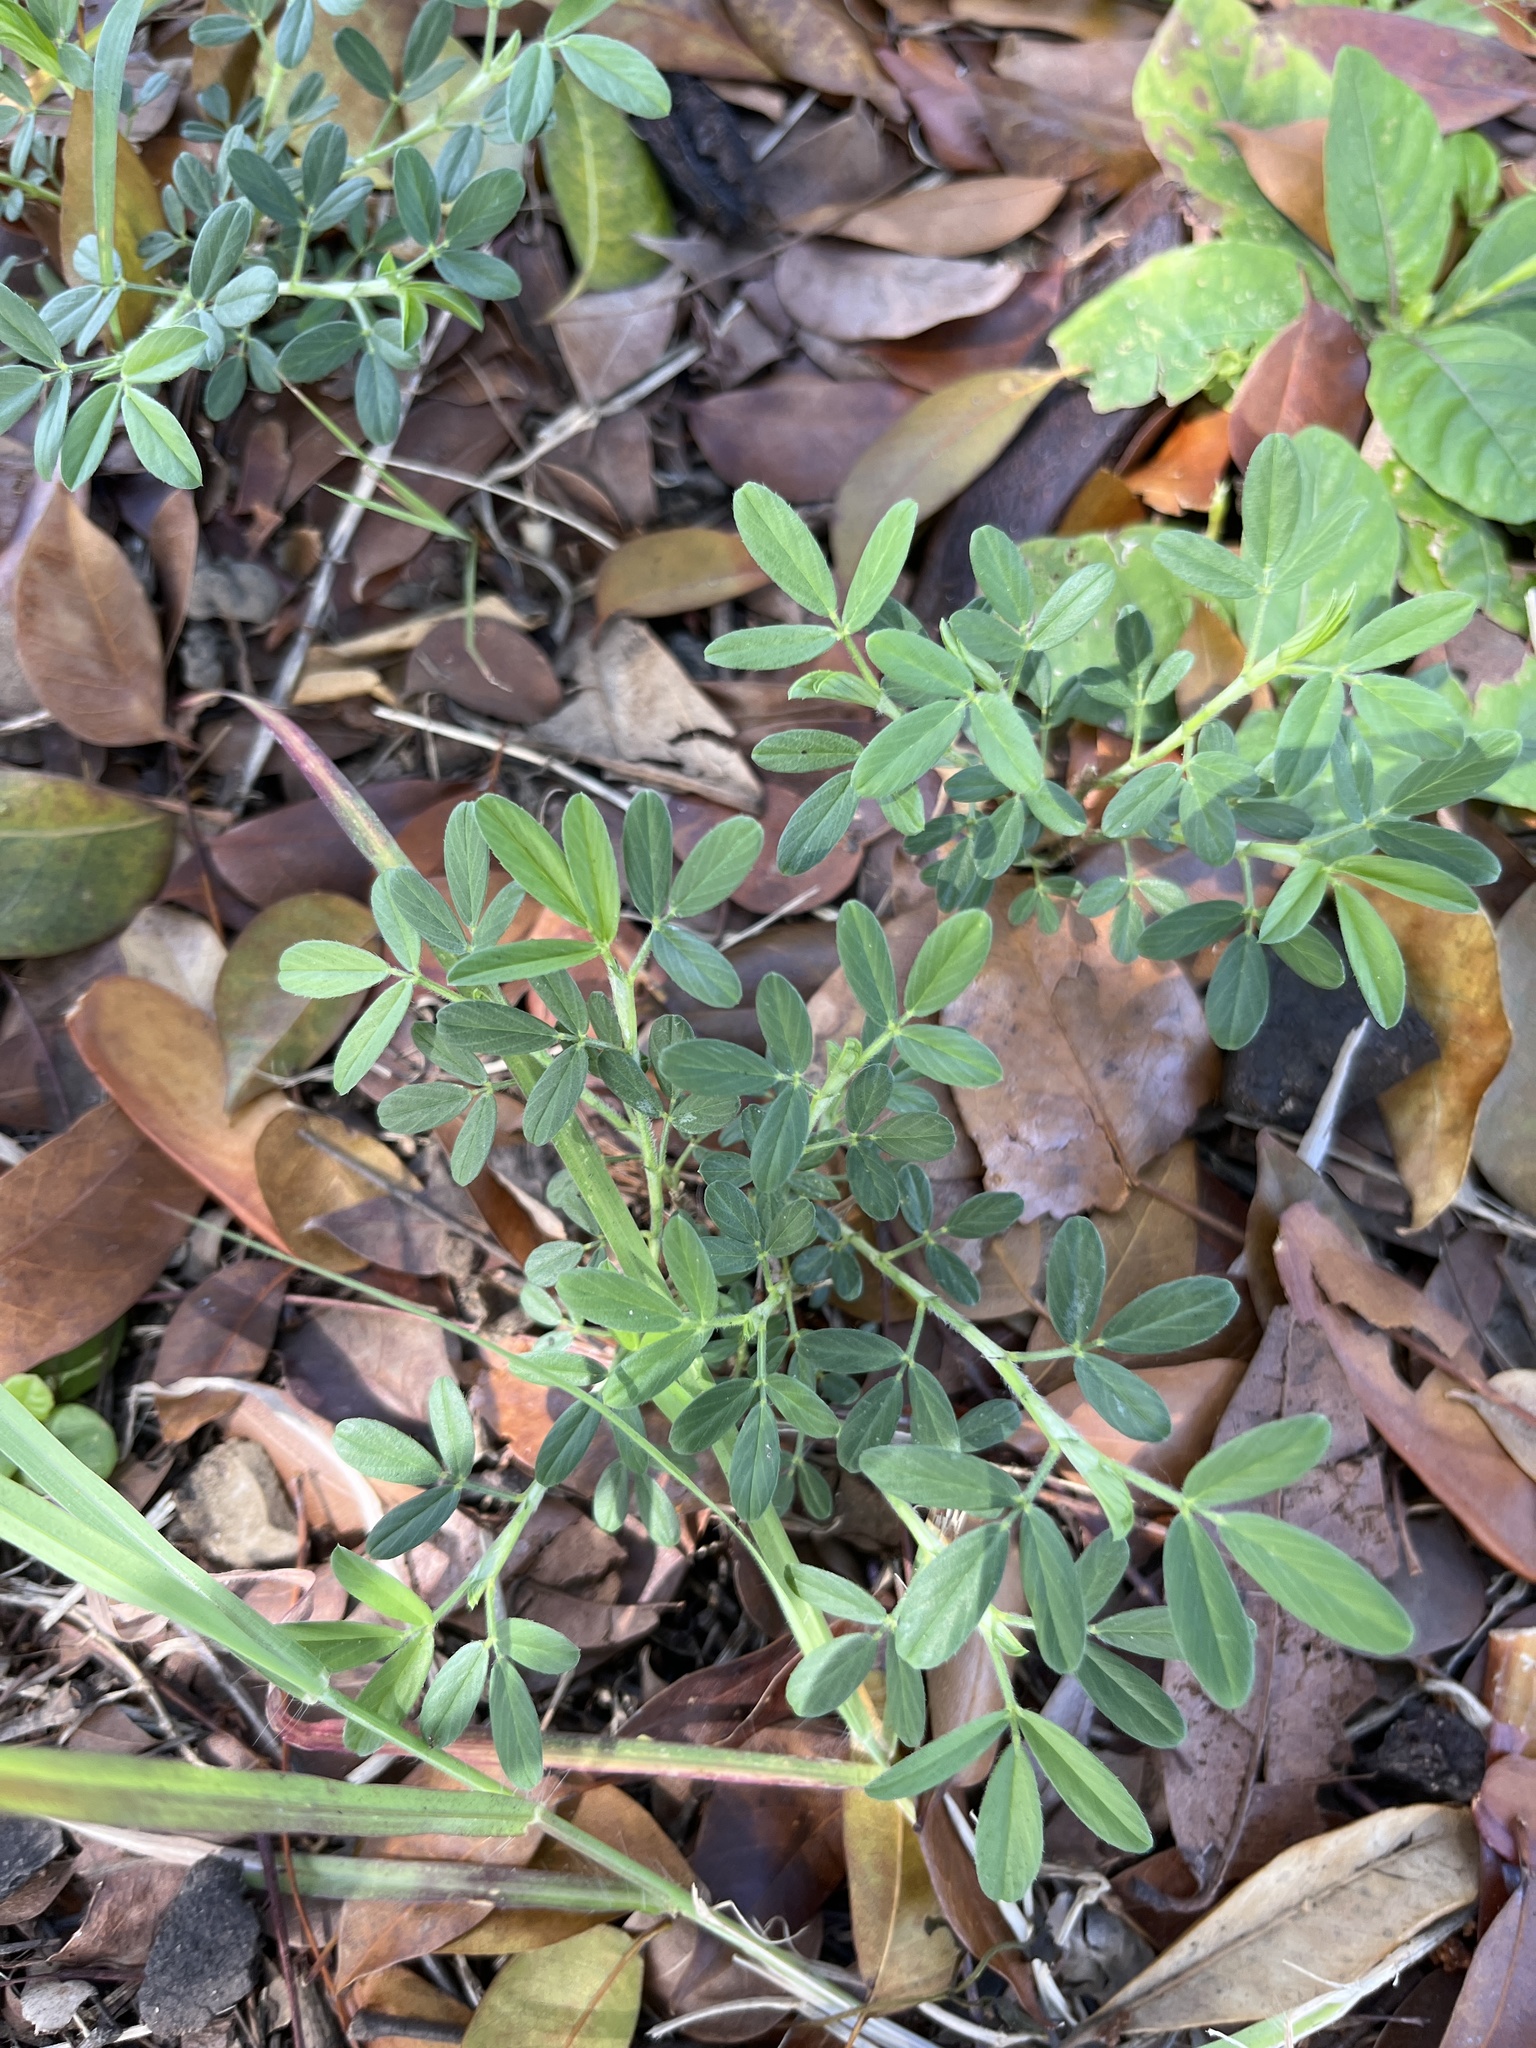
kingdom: Plantae
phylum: Tracheophyta
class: Magnoliopsida
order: Fabales
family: Fabaceae
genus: Stylosanthes
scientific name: Stylosanthes hamata
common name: Cheesytoes
